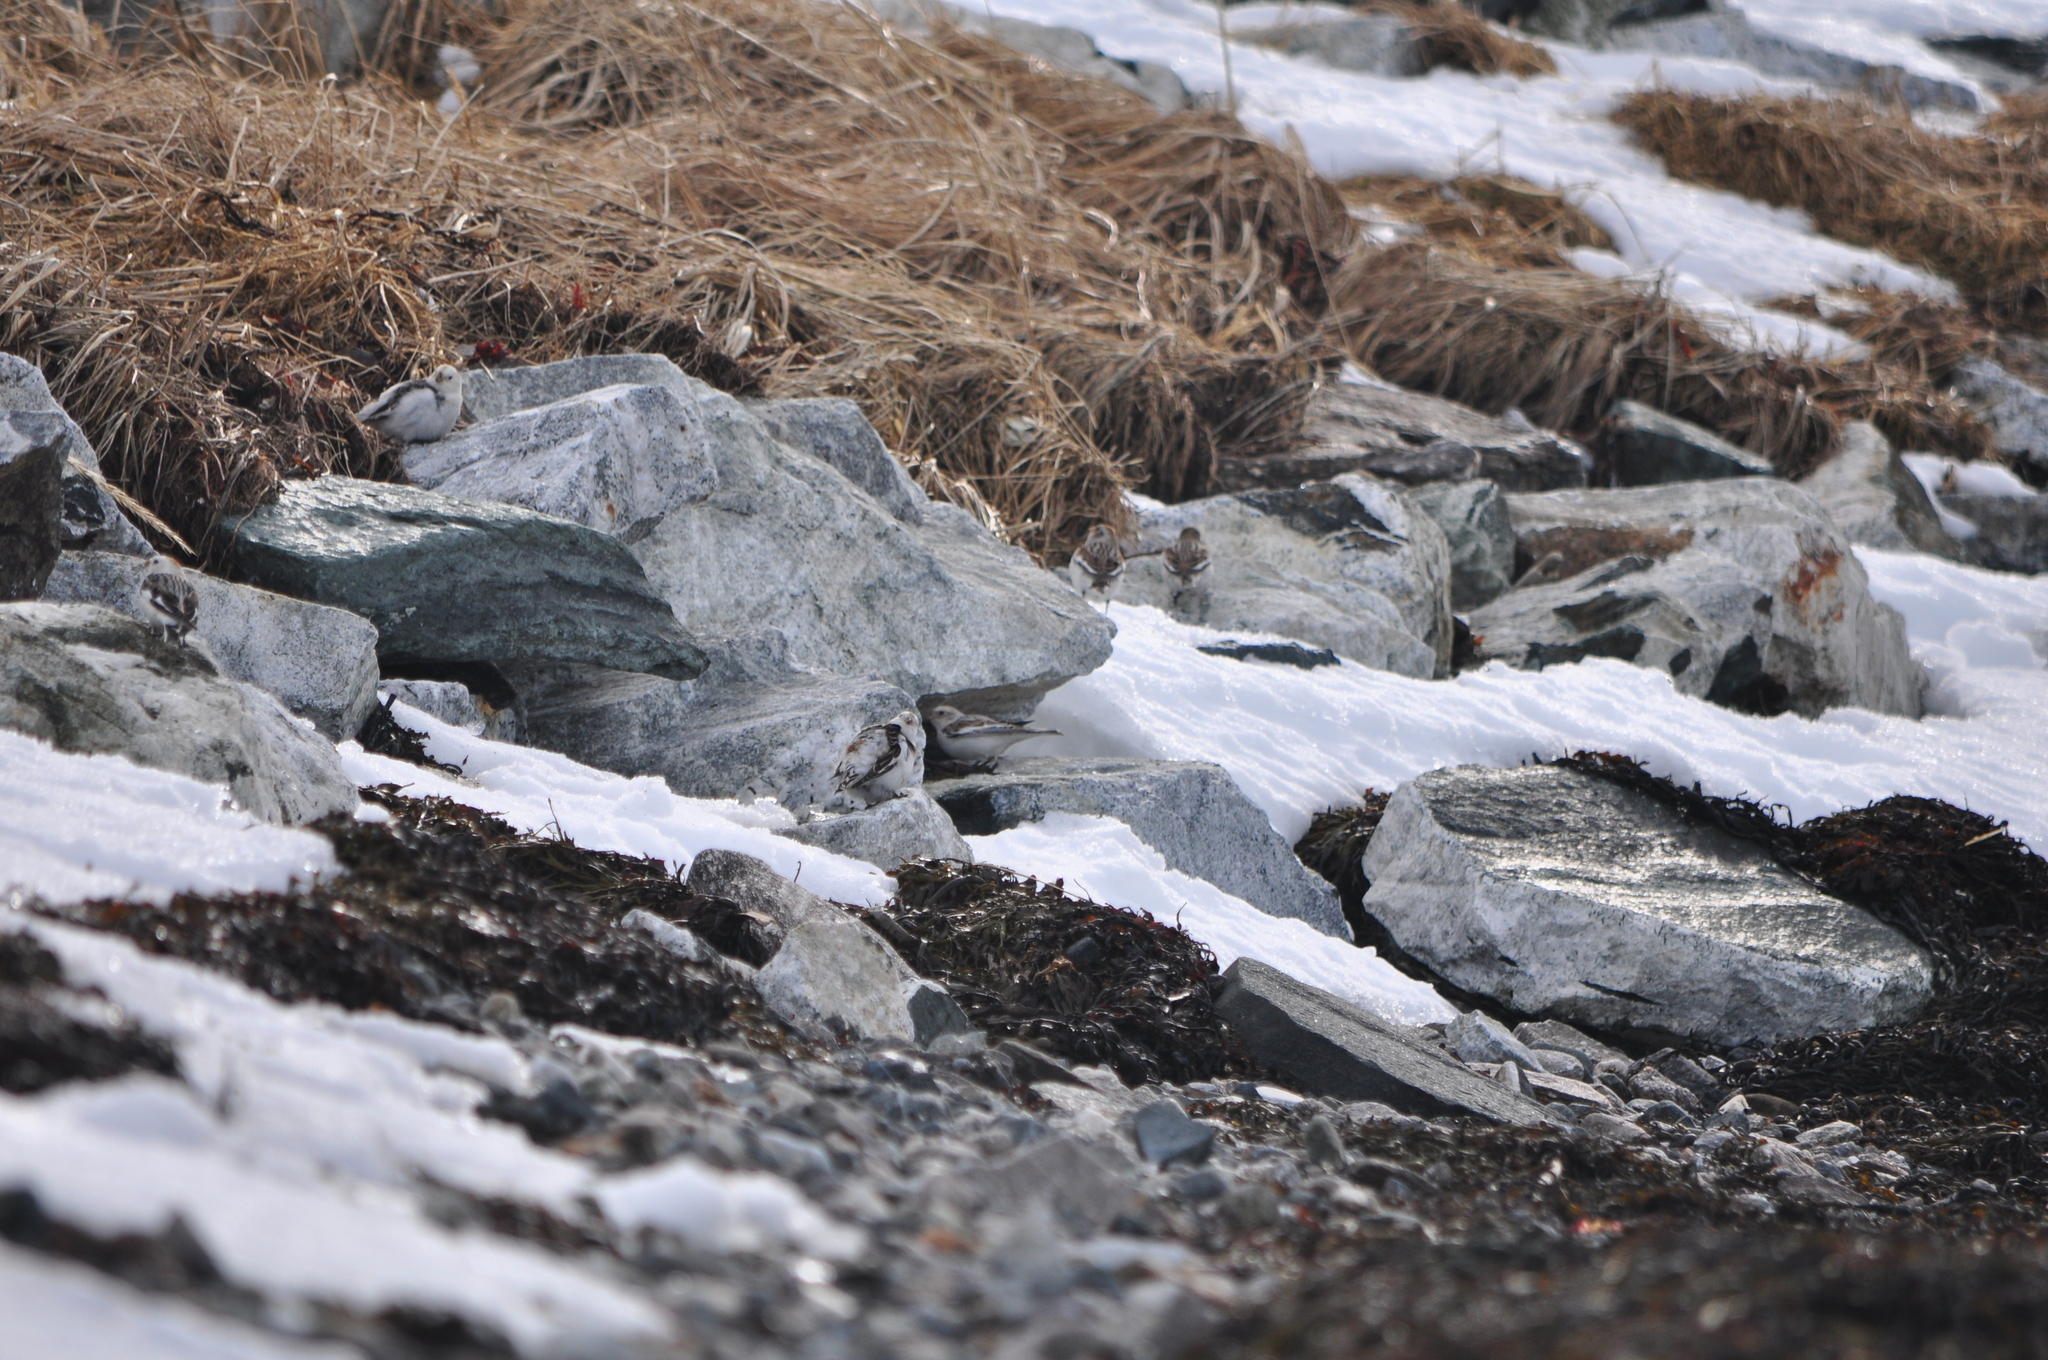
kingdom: Animalia
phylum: Chordata
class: Aves
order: Passeriformes
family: Calcariidae
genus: Plectrophenax
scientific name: Plectrophenax nivalis
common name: Snow bunting
